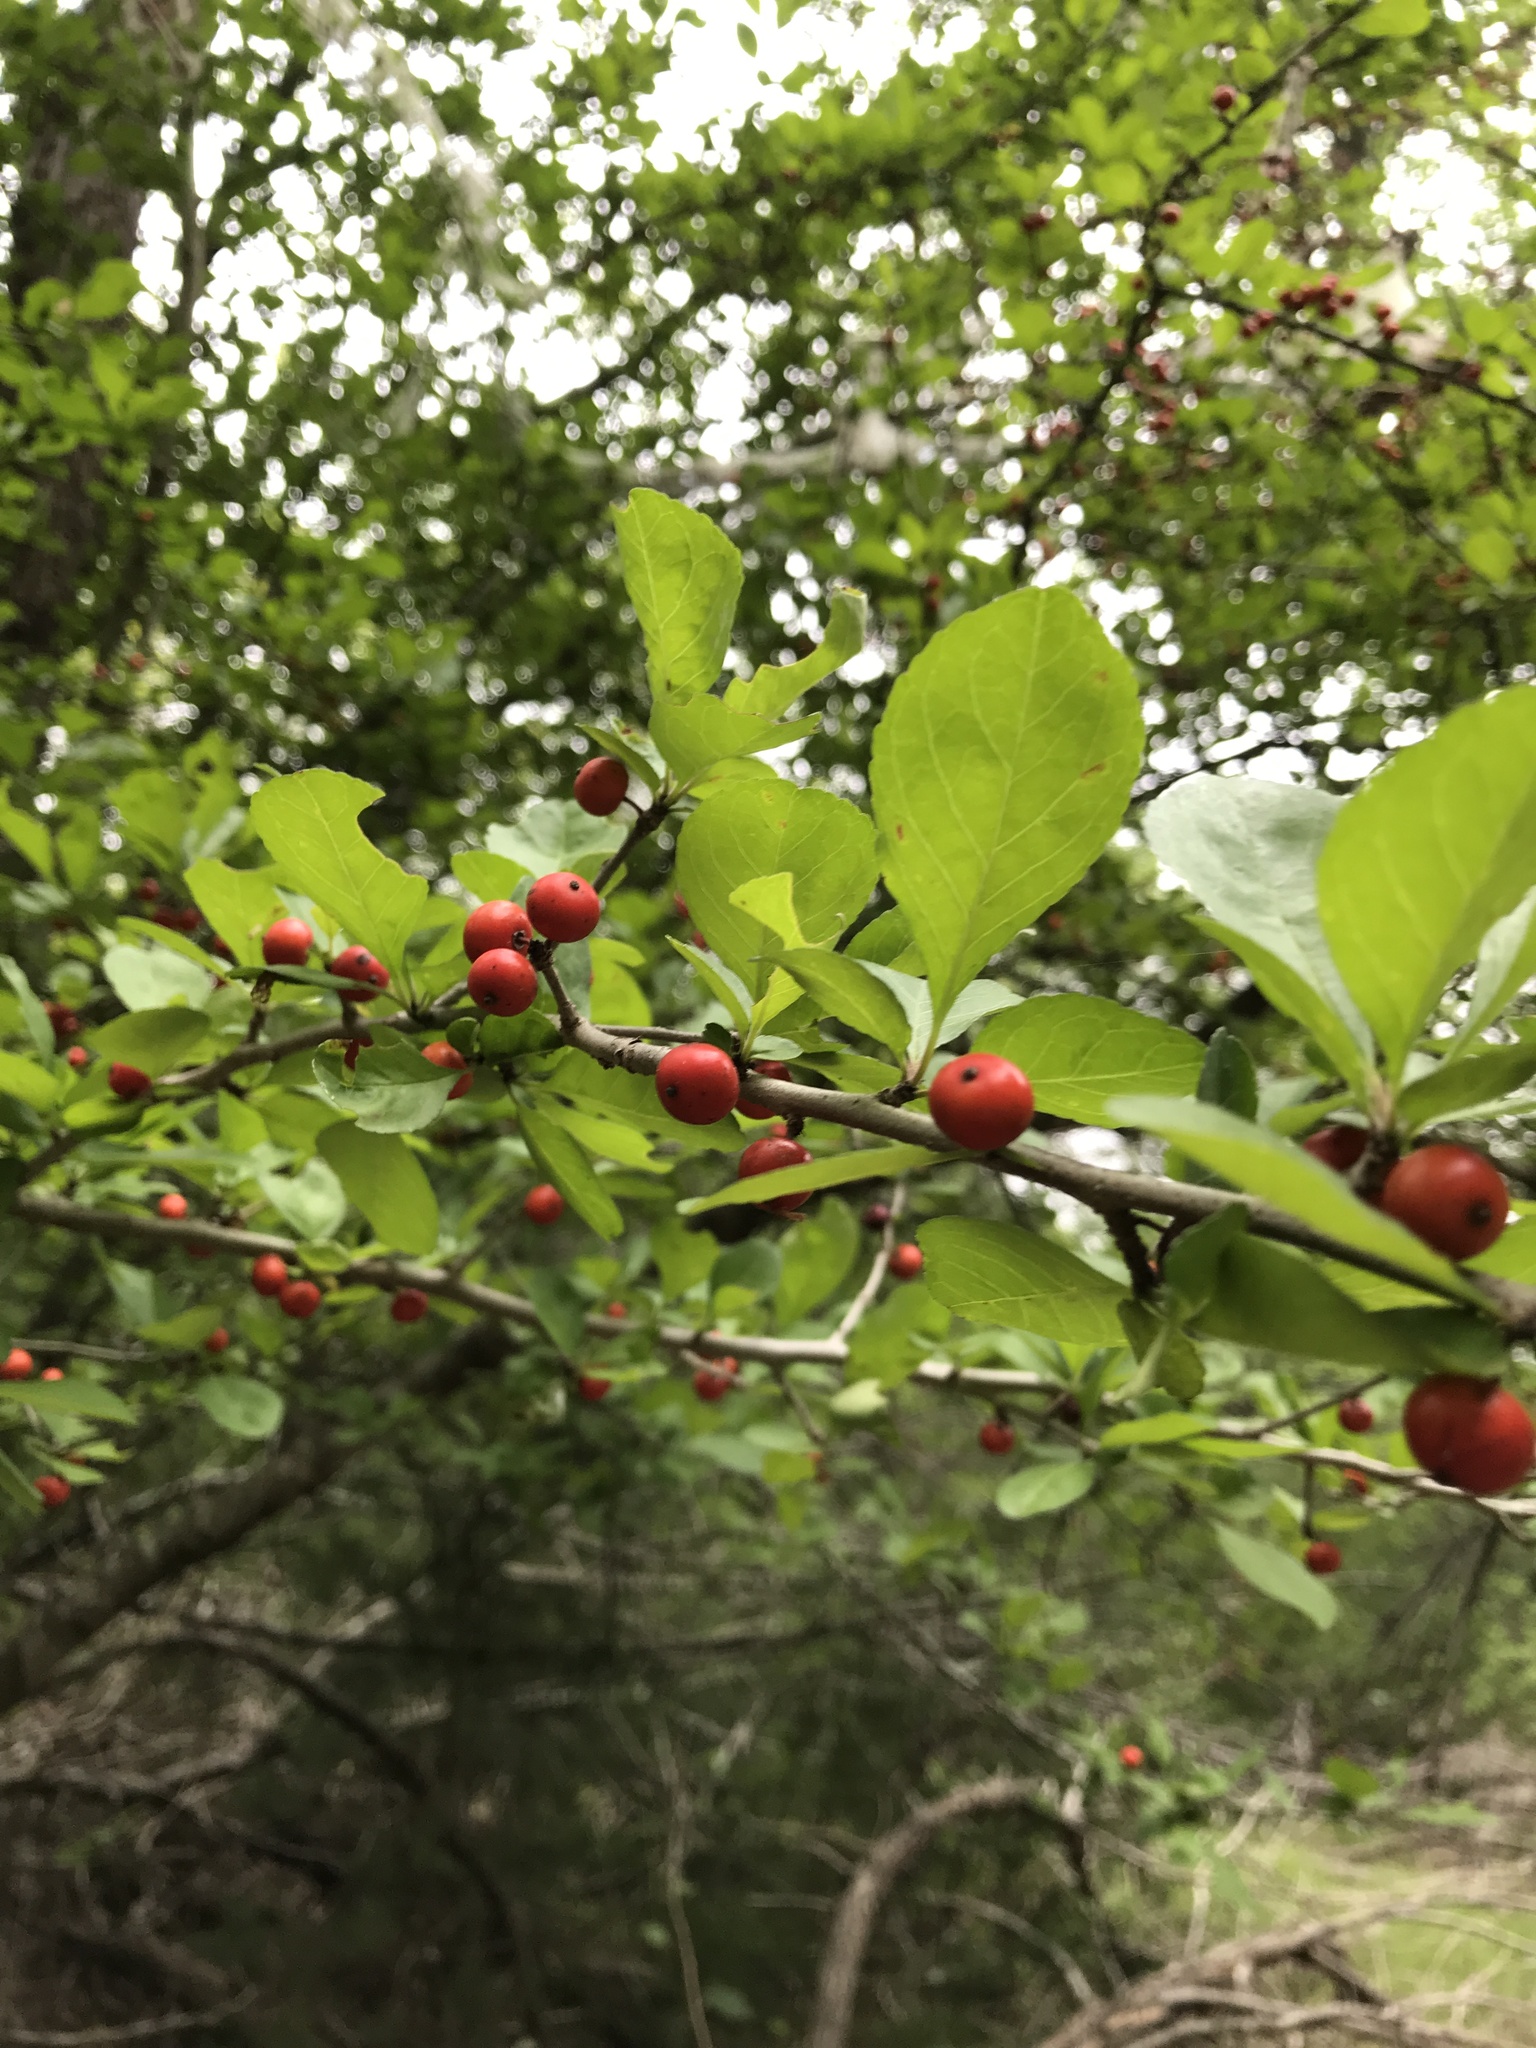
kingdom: Plantae
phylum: Tracheophyta
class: Magnoliopsida
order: Aquifoliales
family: Aquifoliaceae
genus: Ilex
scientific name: Ilex decidua
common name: Possum-haw
